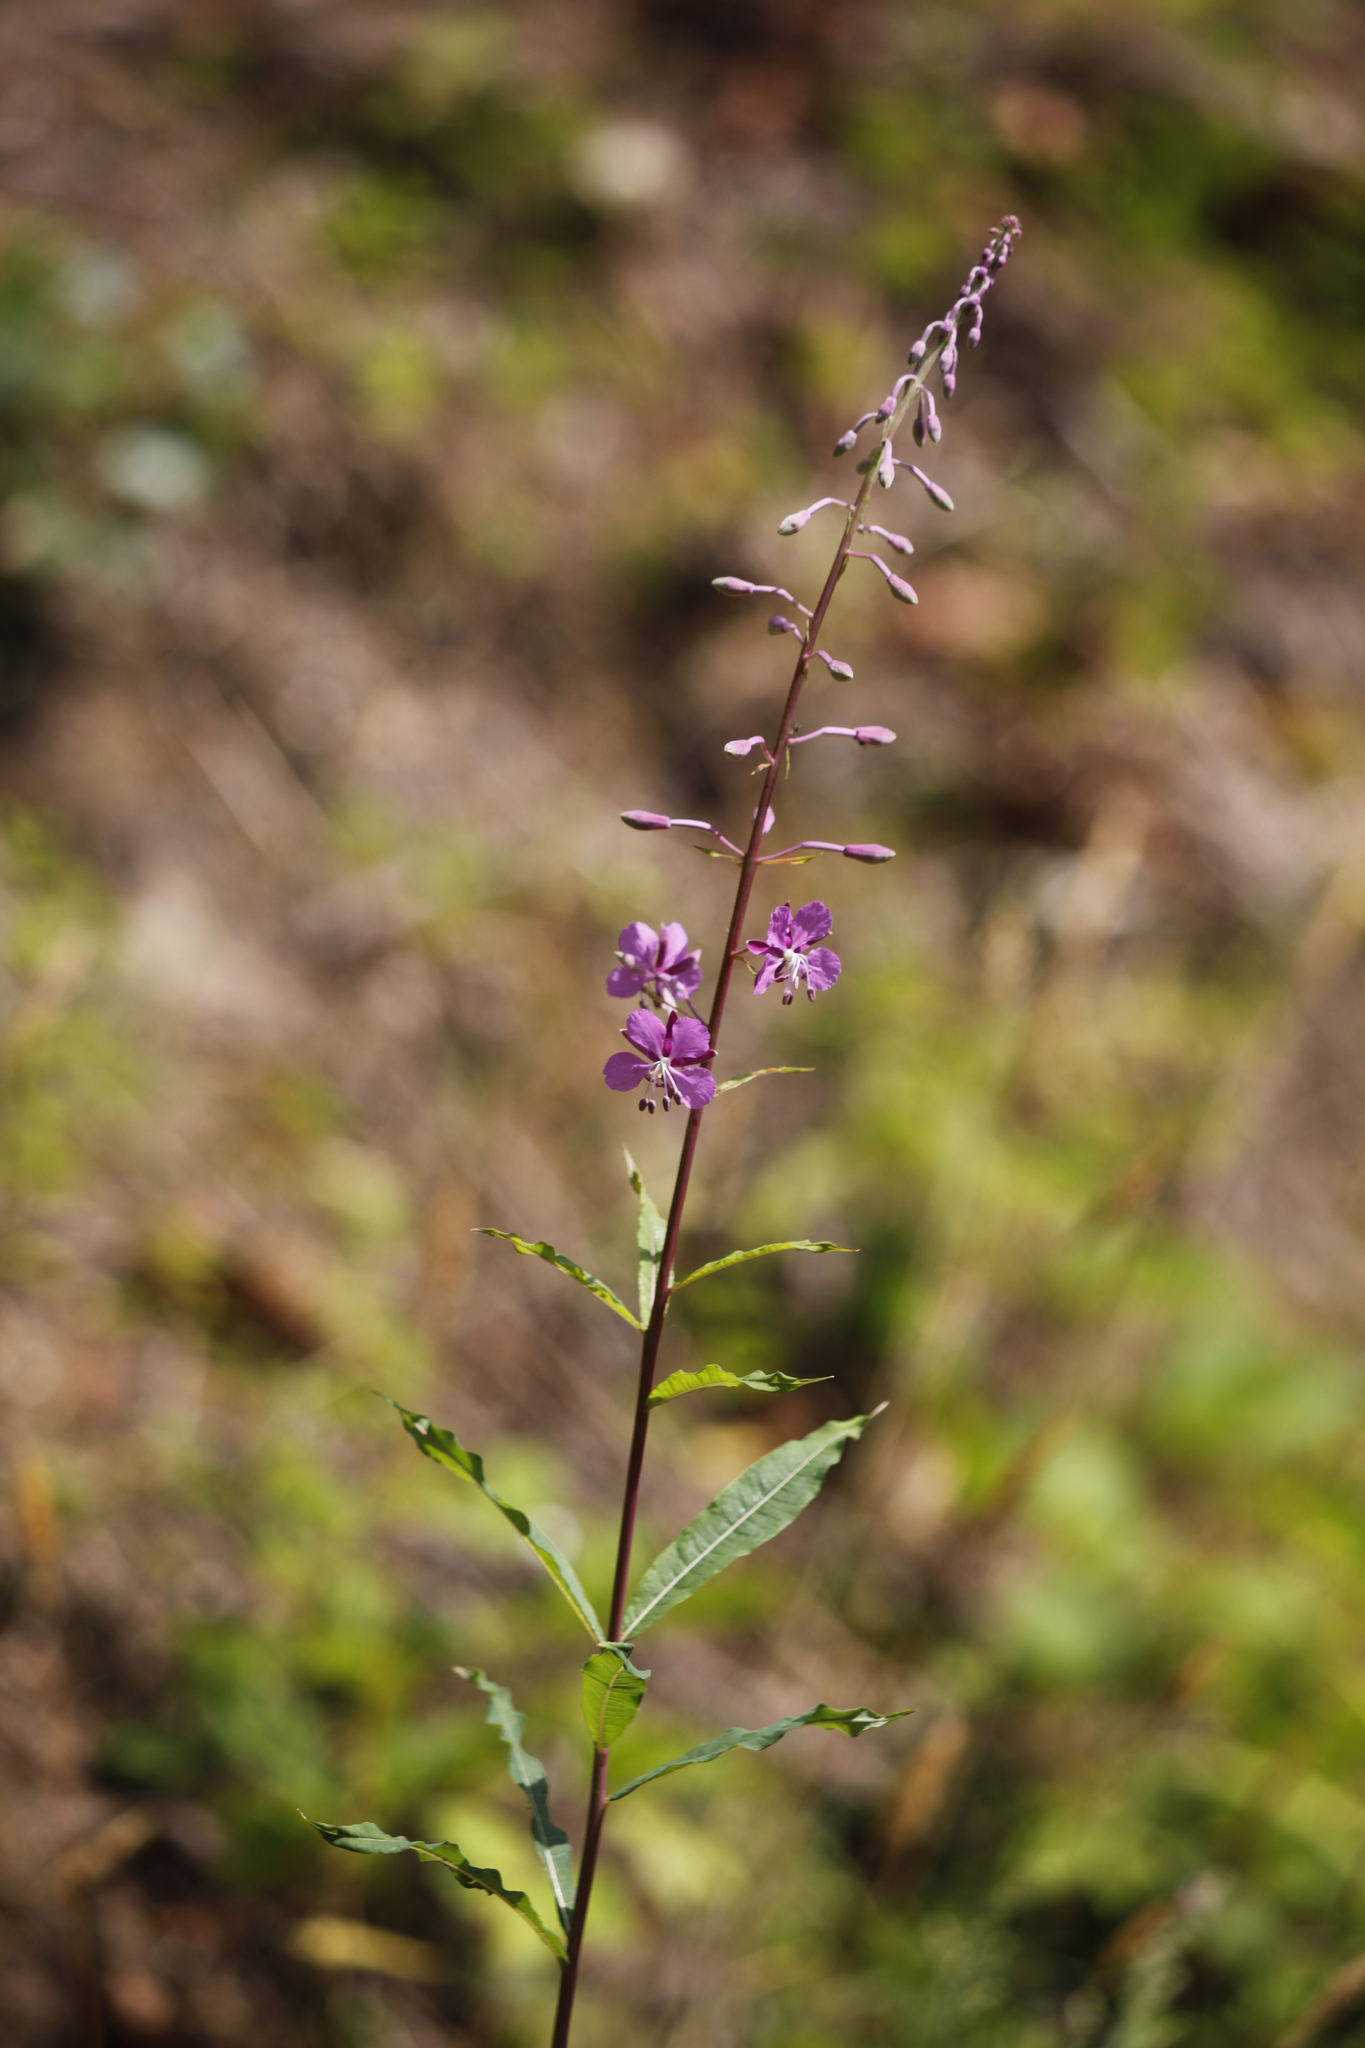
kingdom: Plantae
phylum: Tracheophyta
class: Magnoliopsida
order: Myrtales
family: Onagraceae
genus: Chamaenerion
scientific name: Chamaenerion angustifolium
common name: Fireweed
